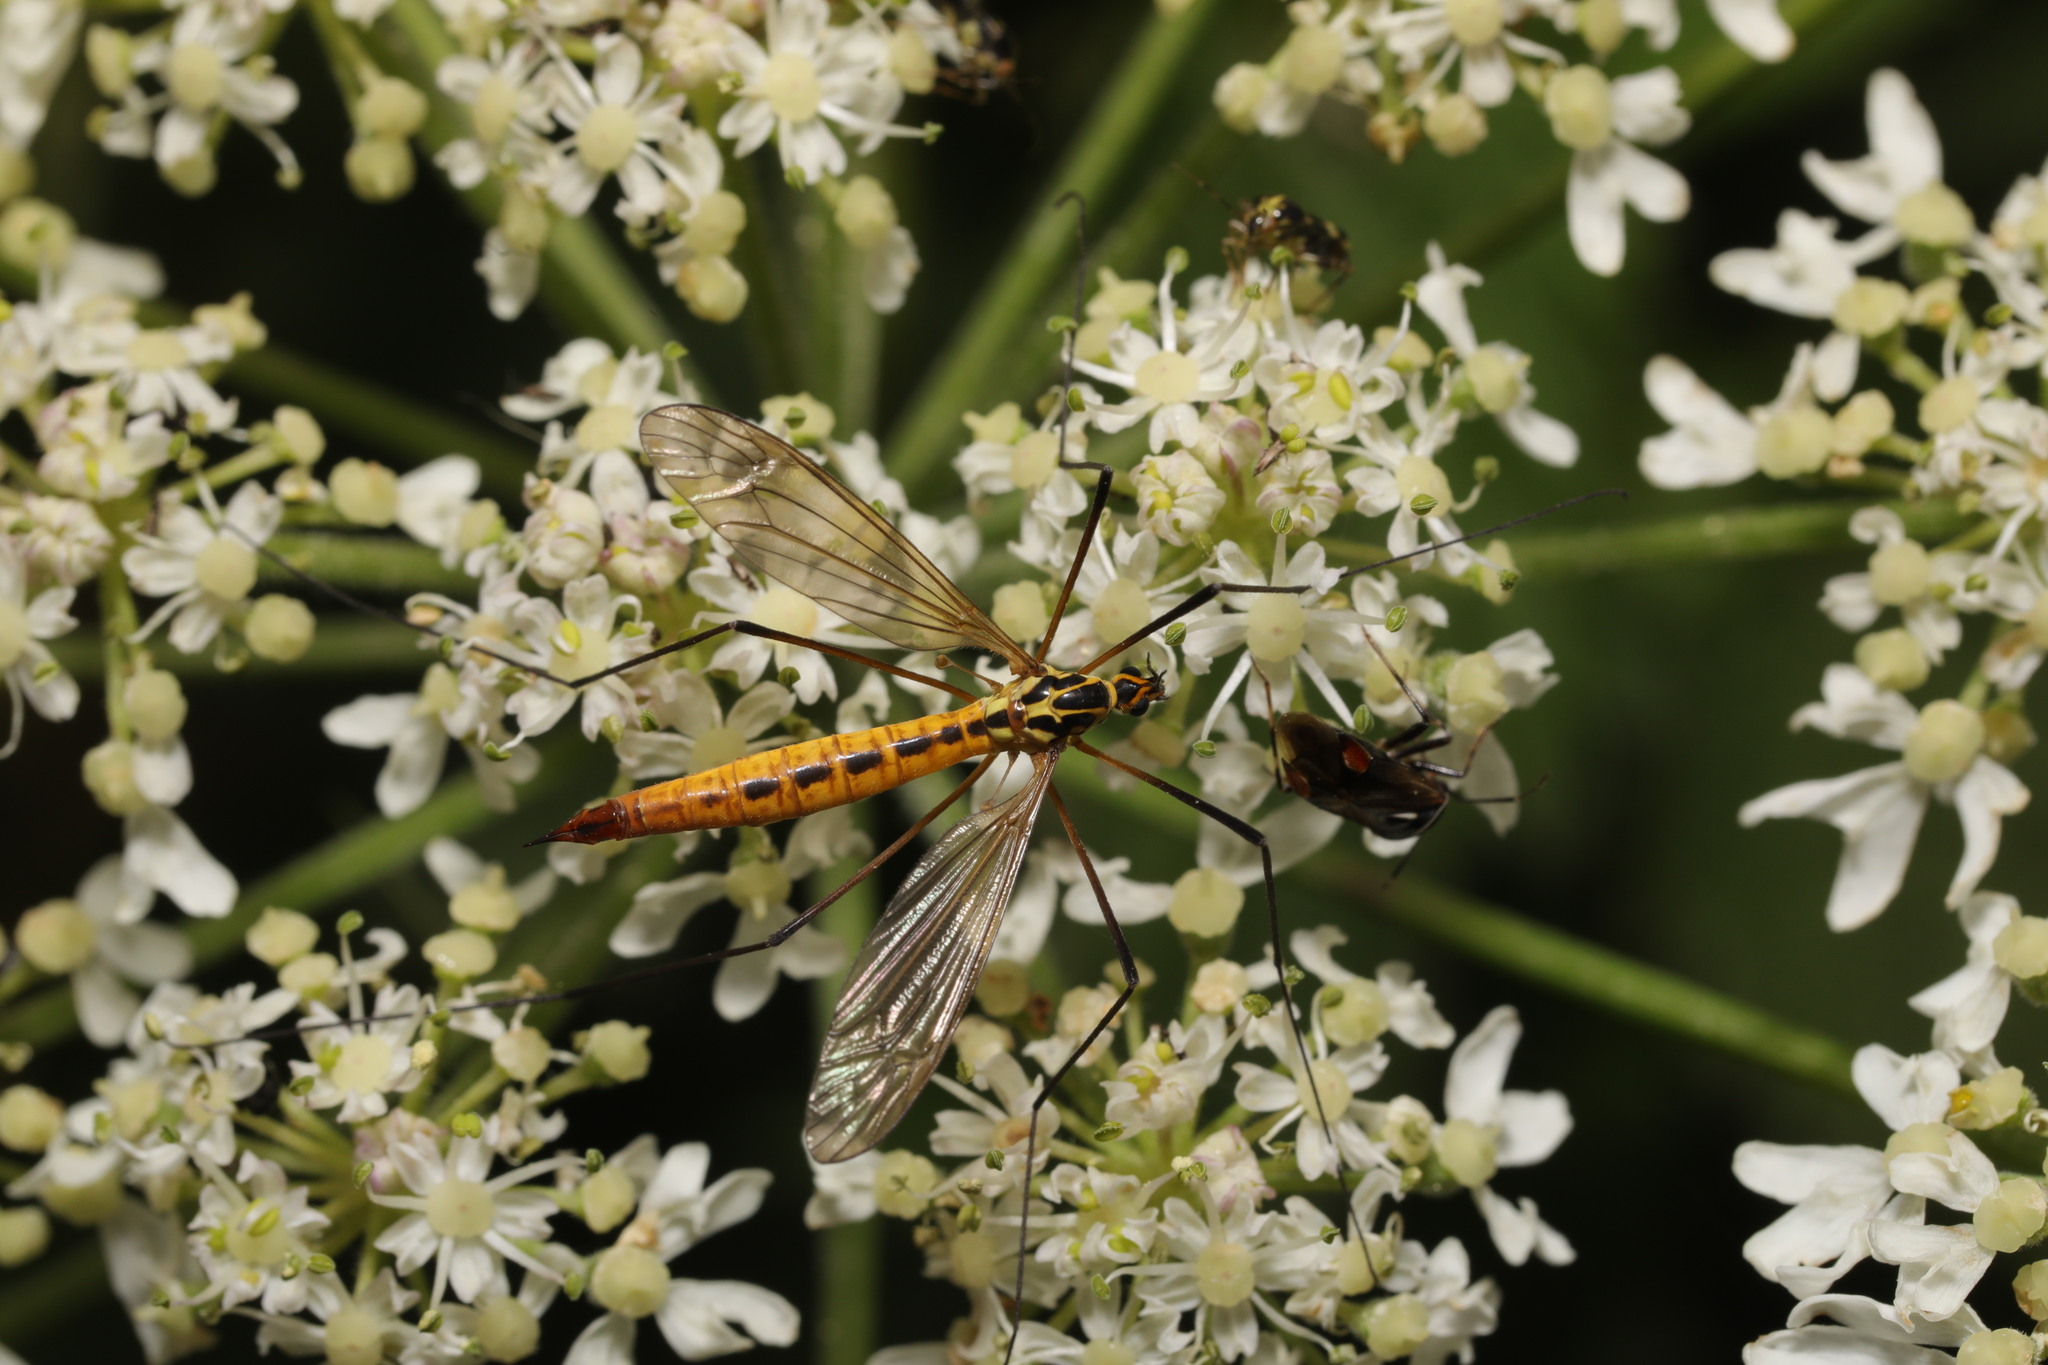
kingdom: Animalia
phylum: Arthropoda
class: Insecta
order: Diptera
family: Tipulidae
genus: Nephrotoma
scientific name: Nephrotoma flavescens
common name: Tiger cranefly
